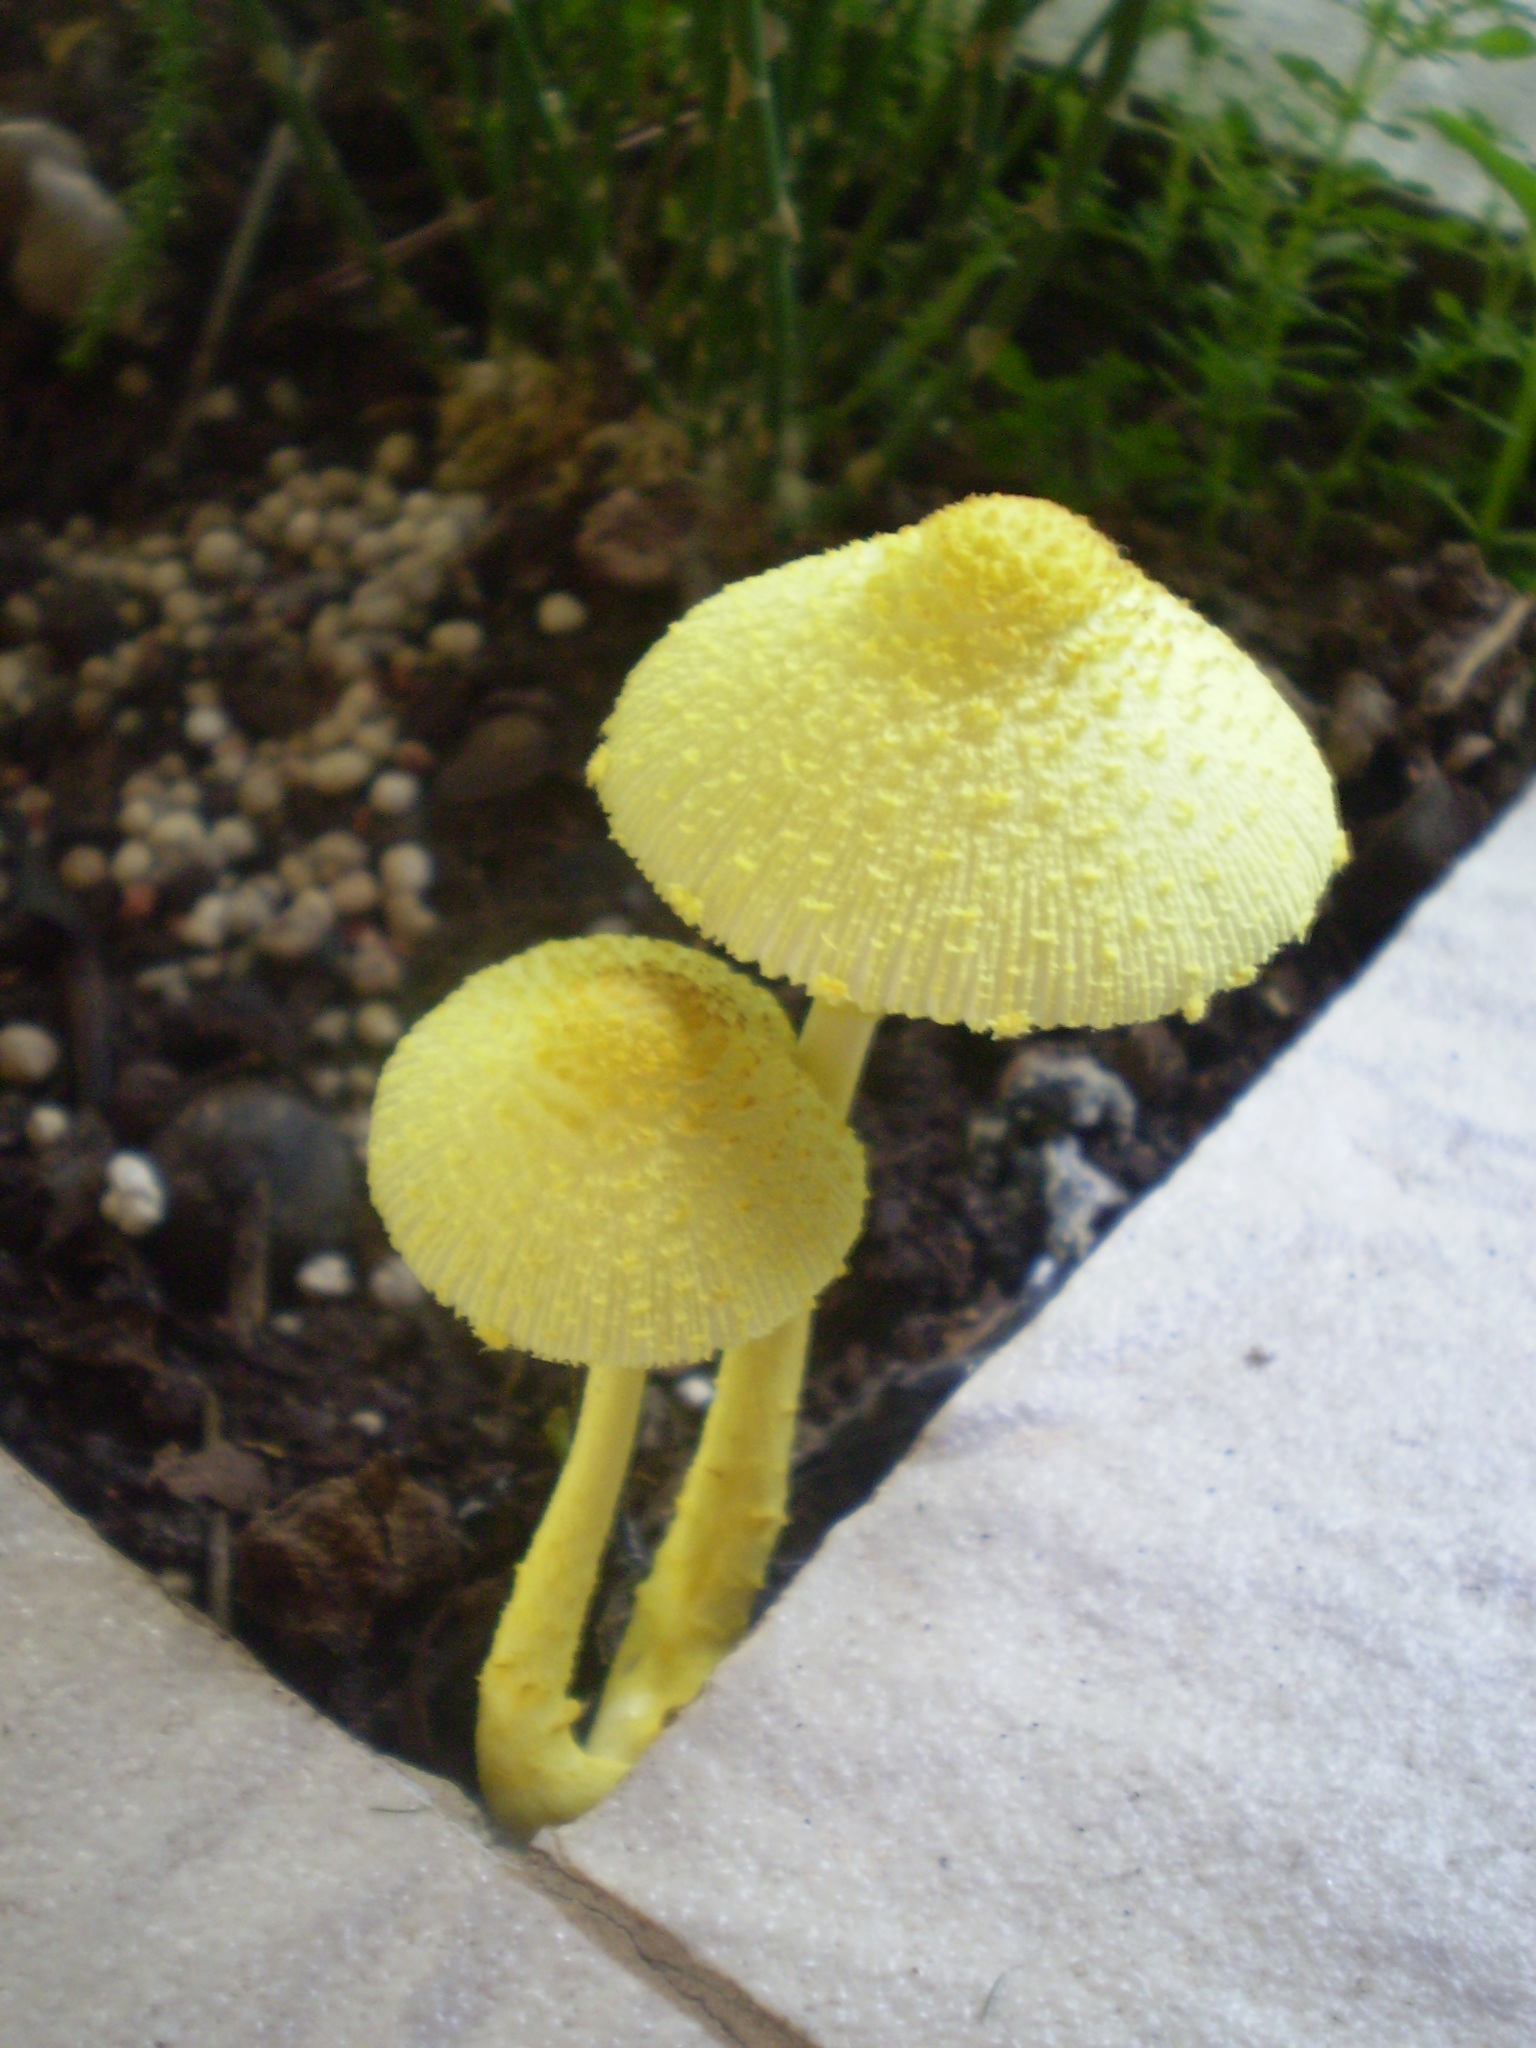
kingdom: Fungi
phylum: Basidiomycota
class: Agaricomycetes
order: Agaricales
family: Agaricaceae
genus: Leucocoprinus
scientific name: Leucocoprinus birnbaumii
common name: Plantpot dapperling
